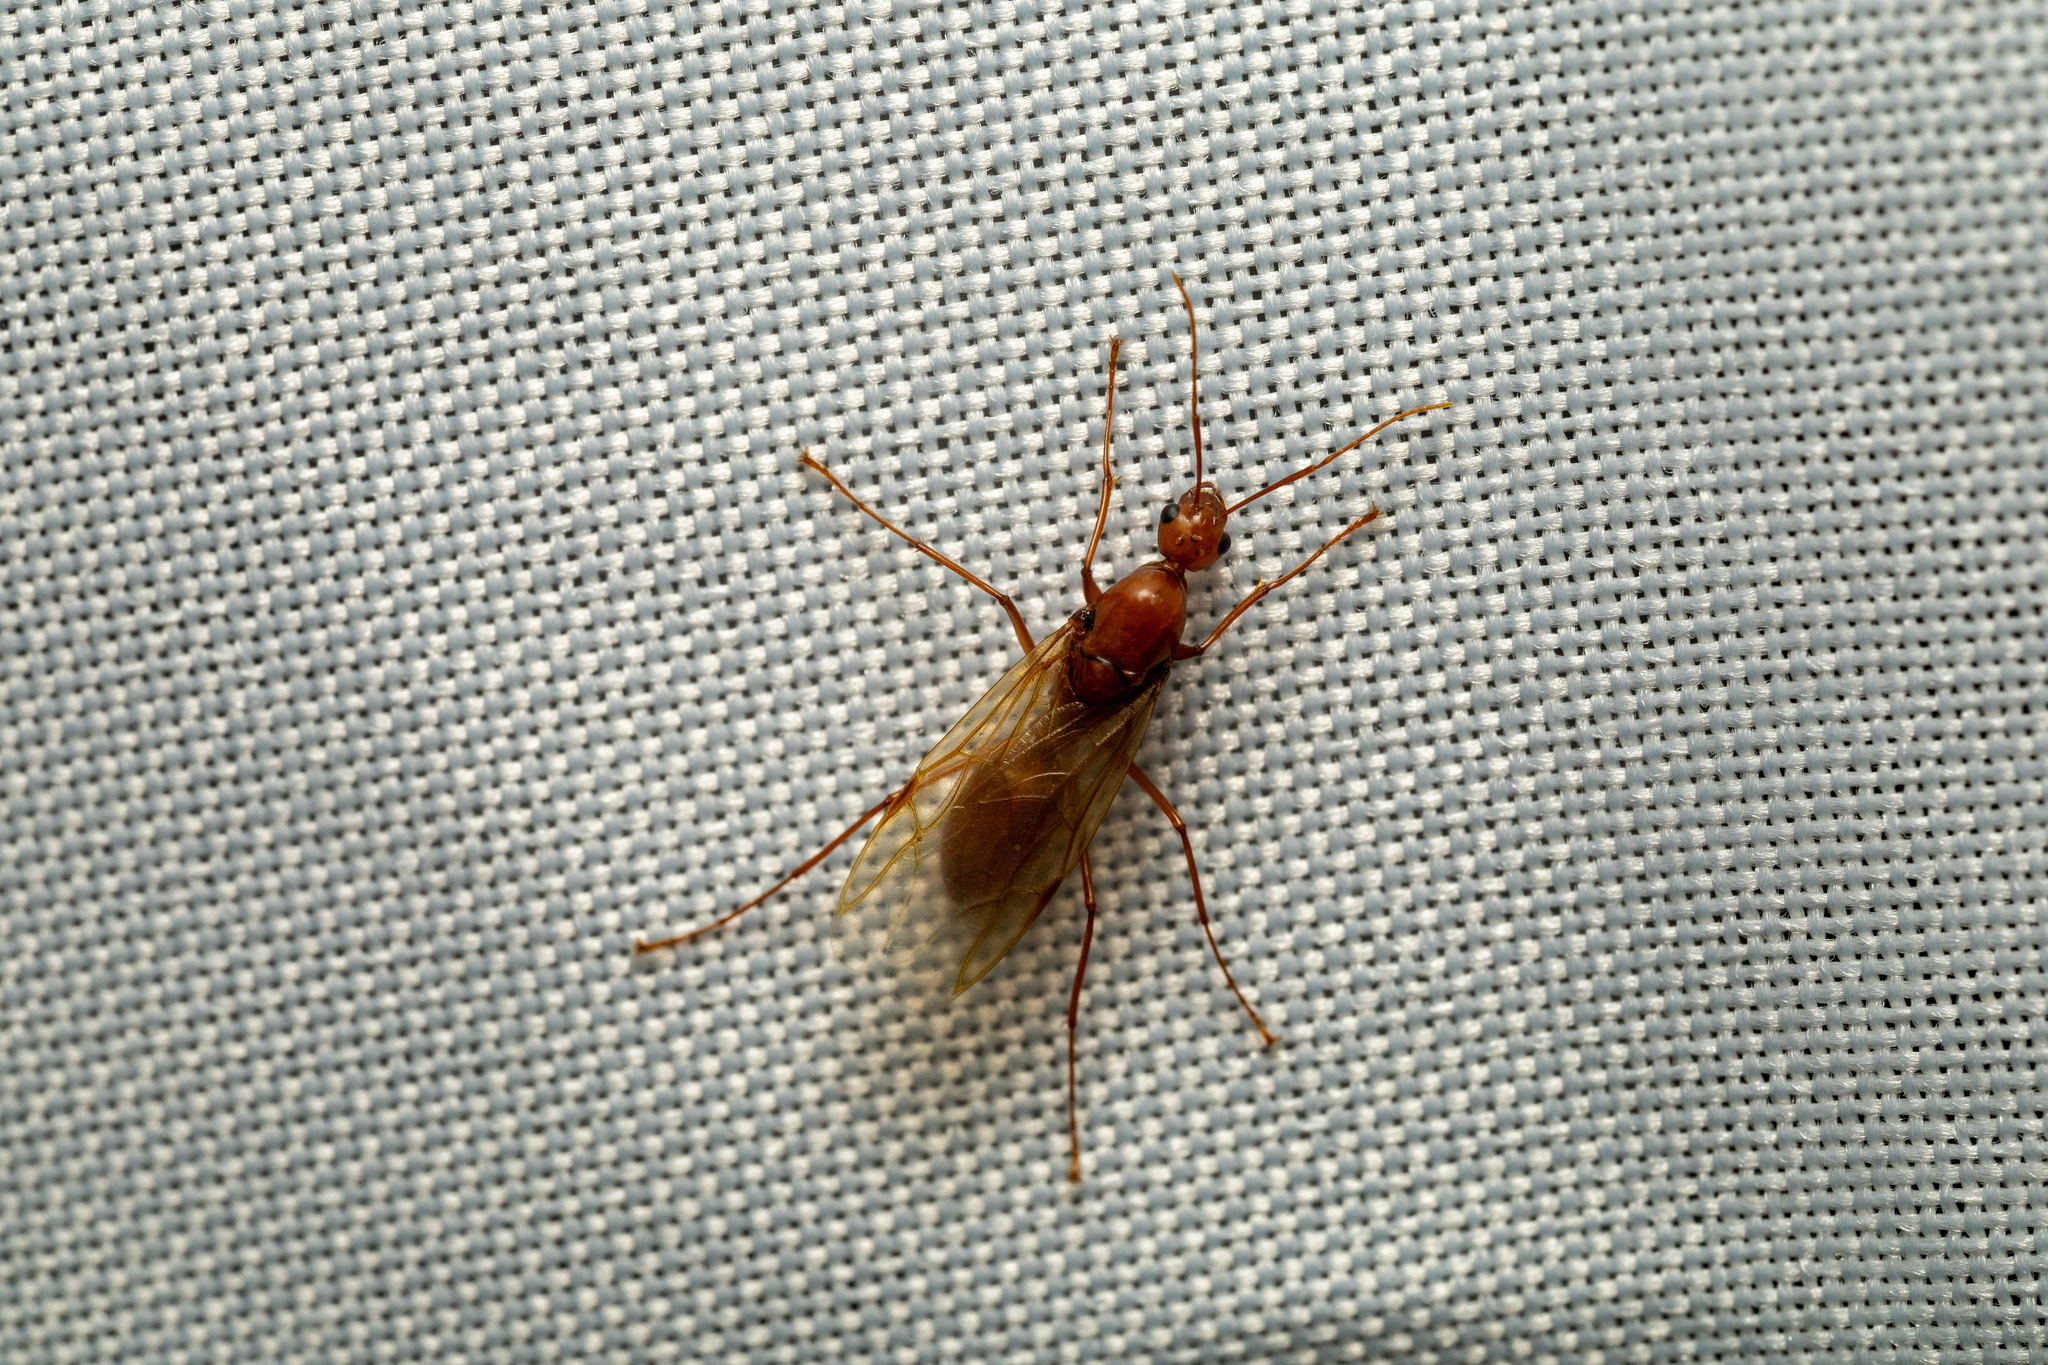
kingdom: Animalia
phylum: Arthropoda
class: Insecta
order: Hymenoptera
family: Formicidae
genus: Camponotus
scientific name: Camponotus castaneus
